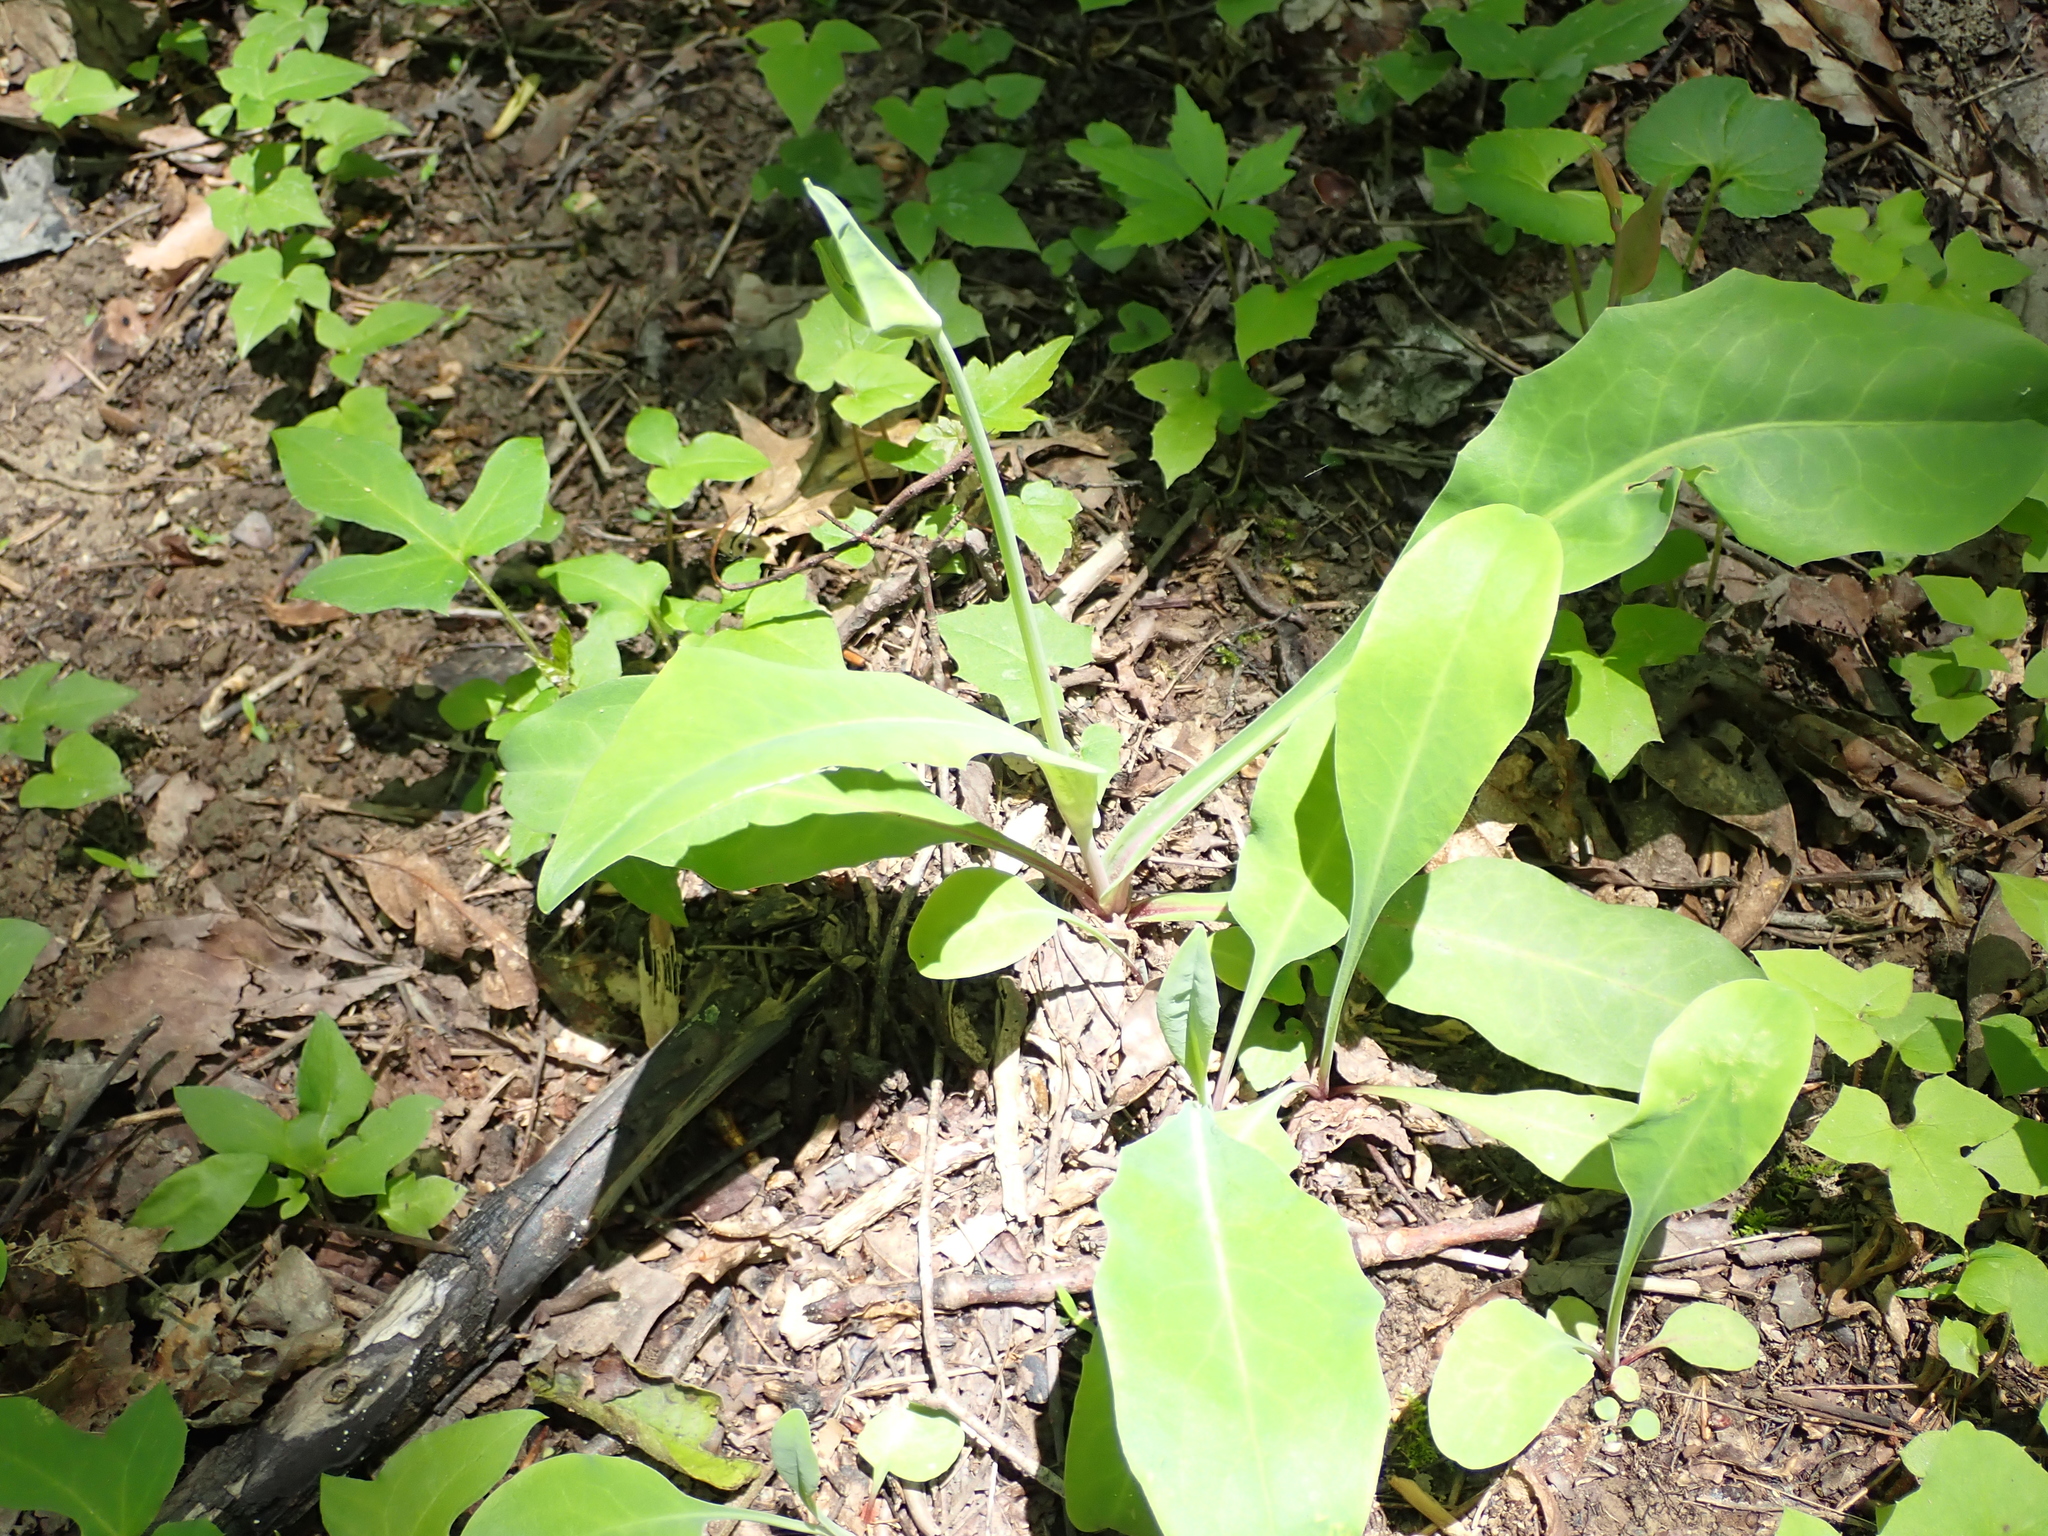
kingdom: Plantae
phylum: Tracheophyta
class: Magnoliopsida
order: Asterales
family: Asteraceae
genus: Krigia
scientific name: Krigia biflora
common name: Orange dwarf-dandelion
